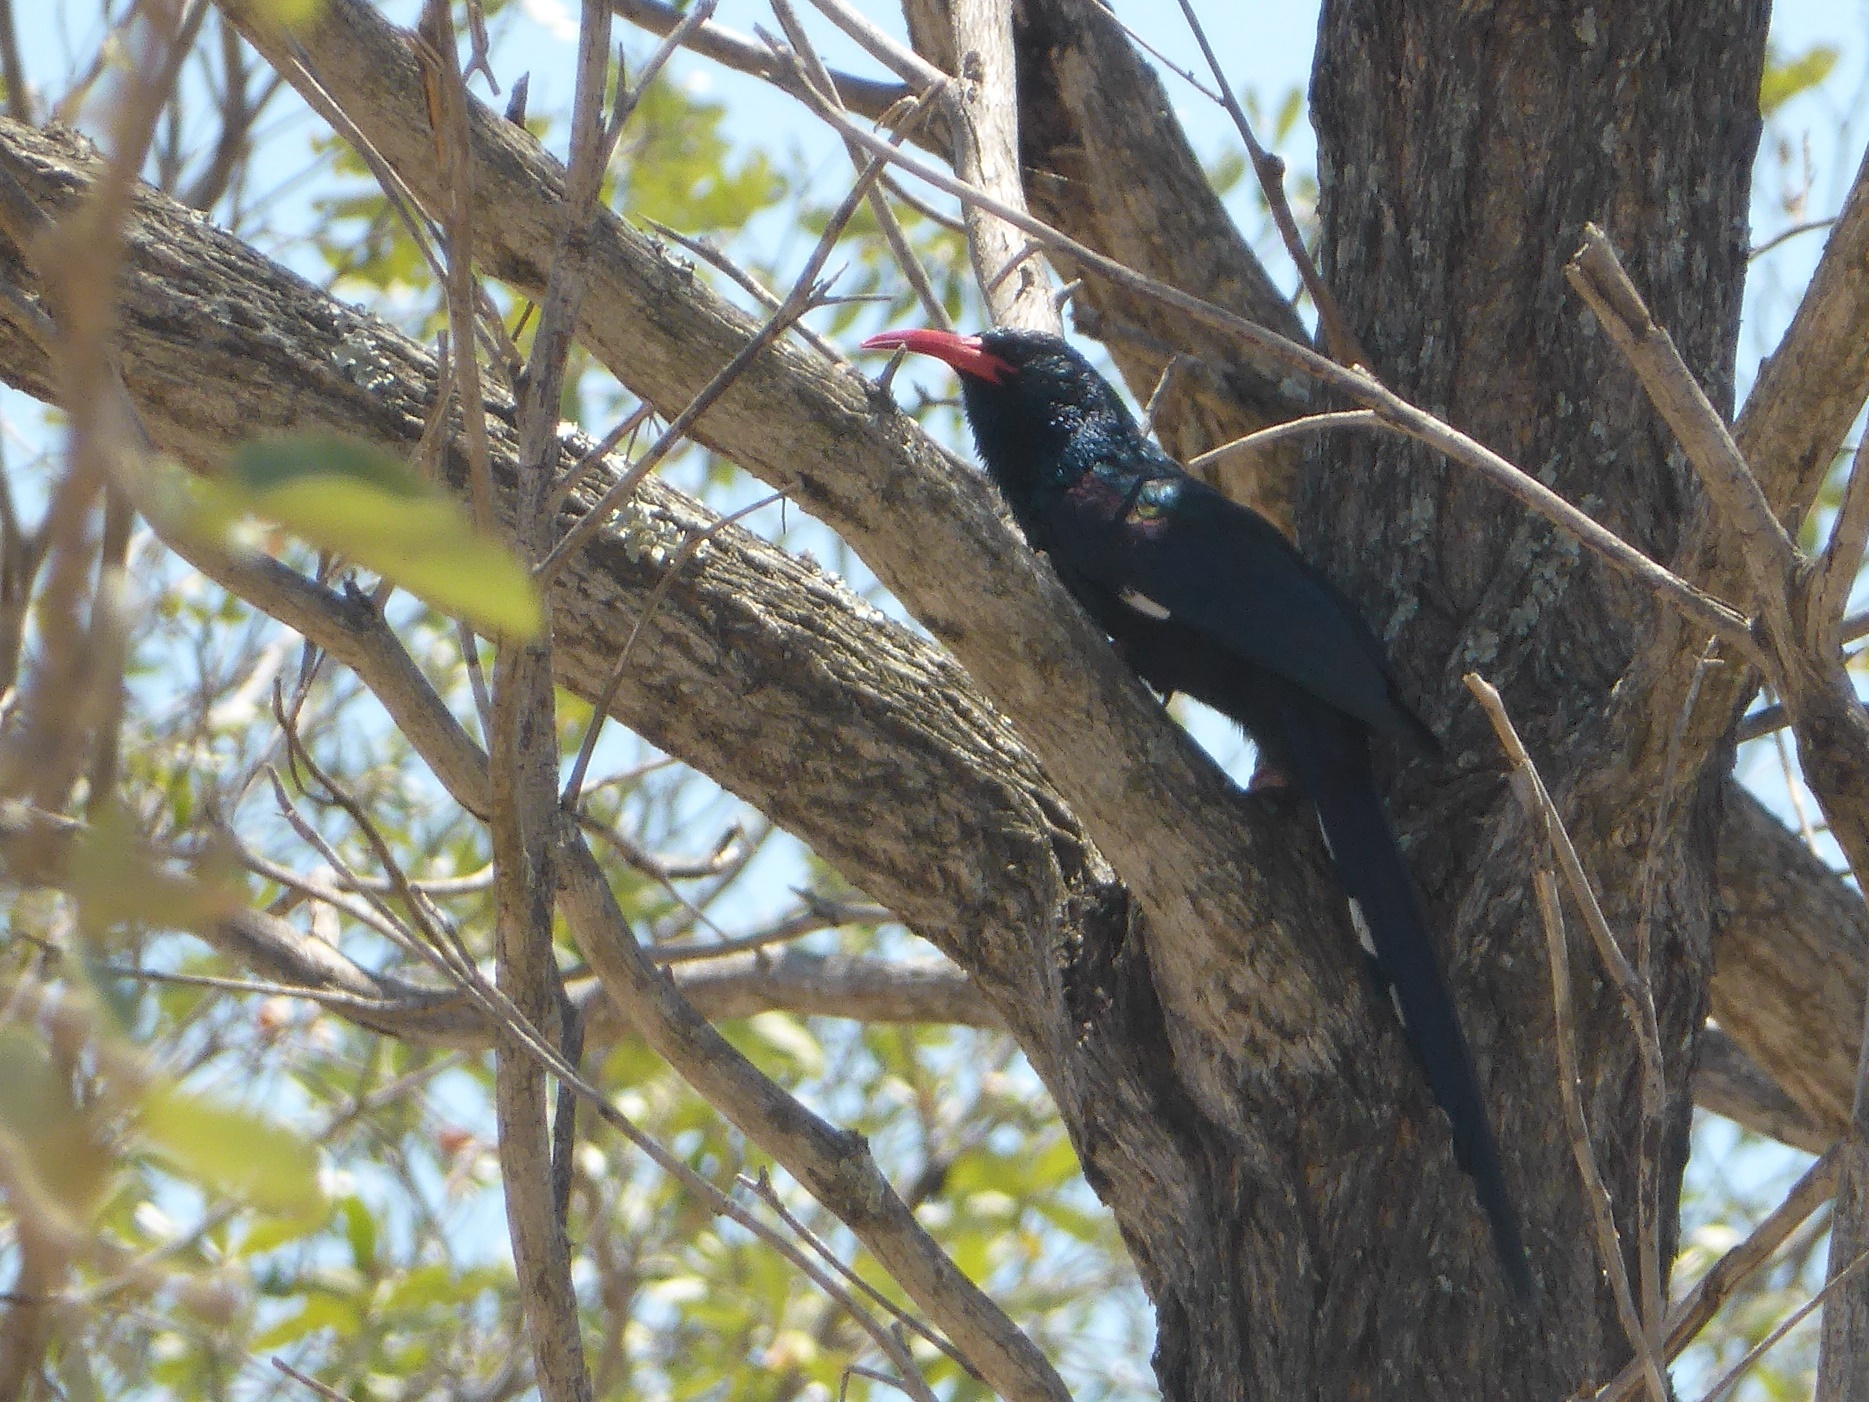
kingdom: Animalia
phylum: Chordata
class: Aves
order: Bucerotiformes
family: Phoeniculidae
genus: Phoeniculus
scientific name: Phoeniculus purpureus
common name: Green woodhoopoe
